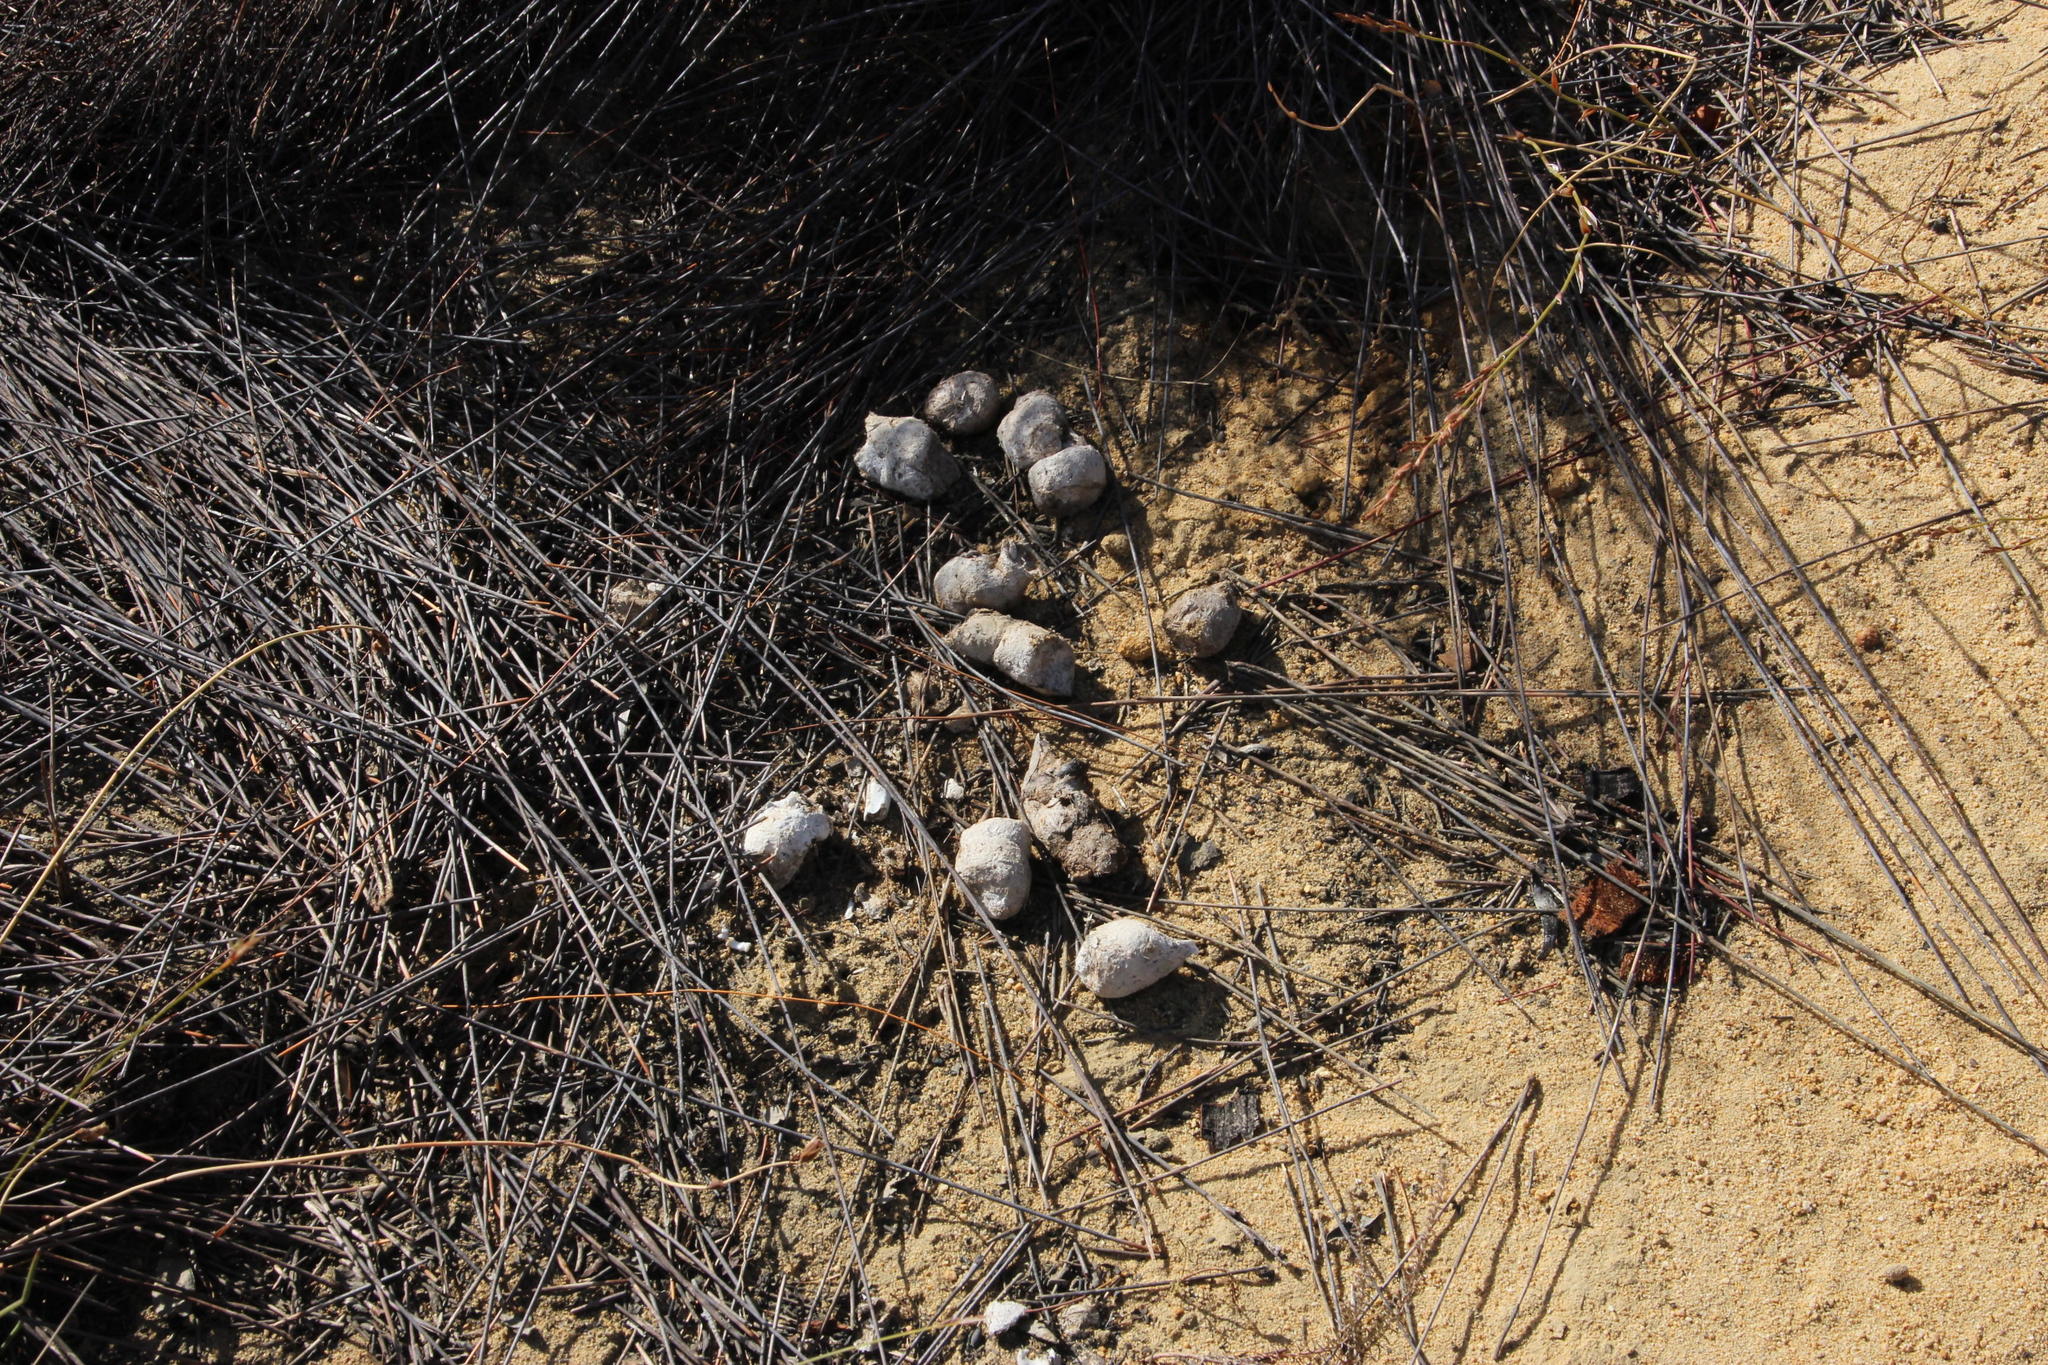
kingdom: Animalia
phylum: Chordata
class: Mammalia
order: Carnivora
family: Felidae
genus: Panthera
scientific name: Panthera pardus
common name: Leopard
